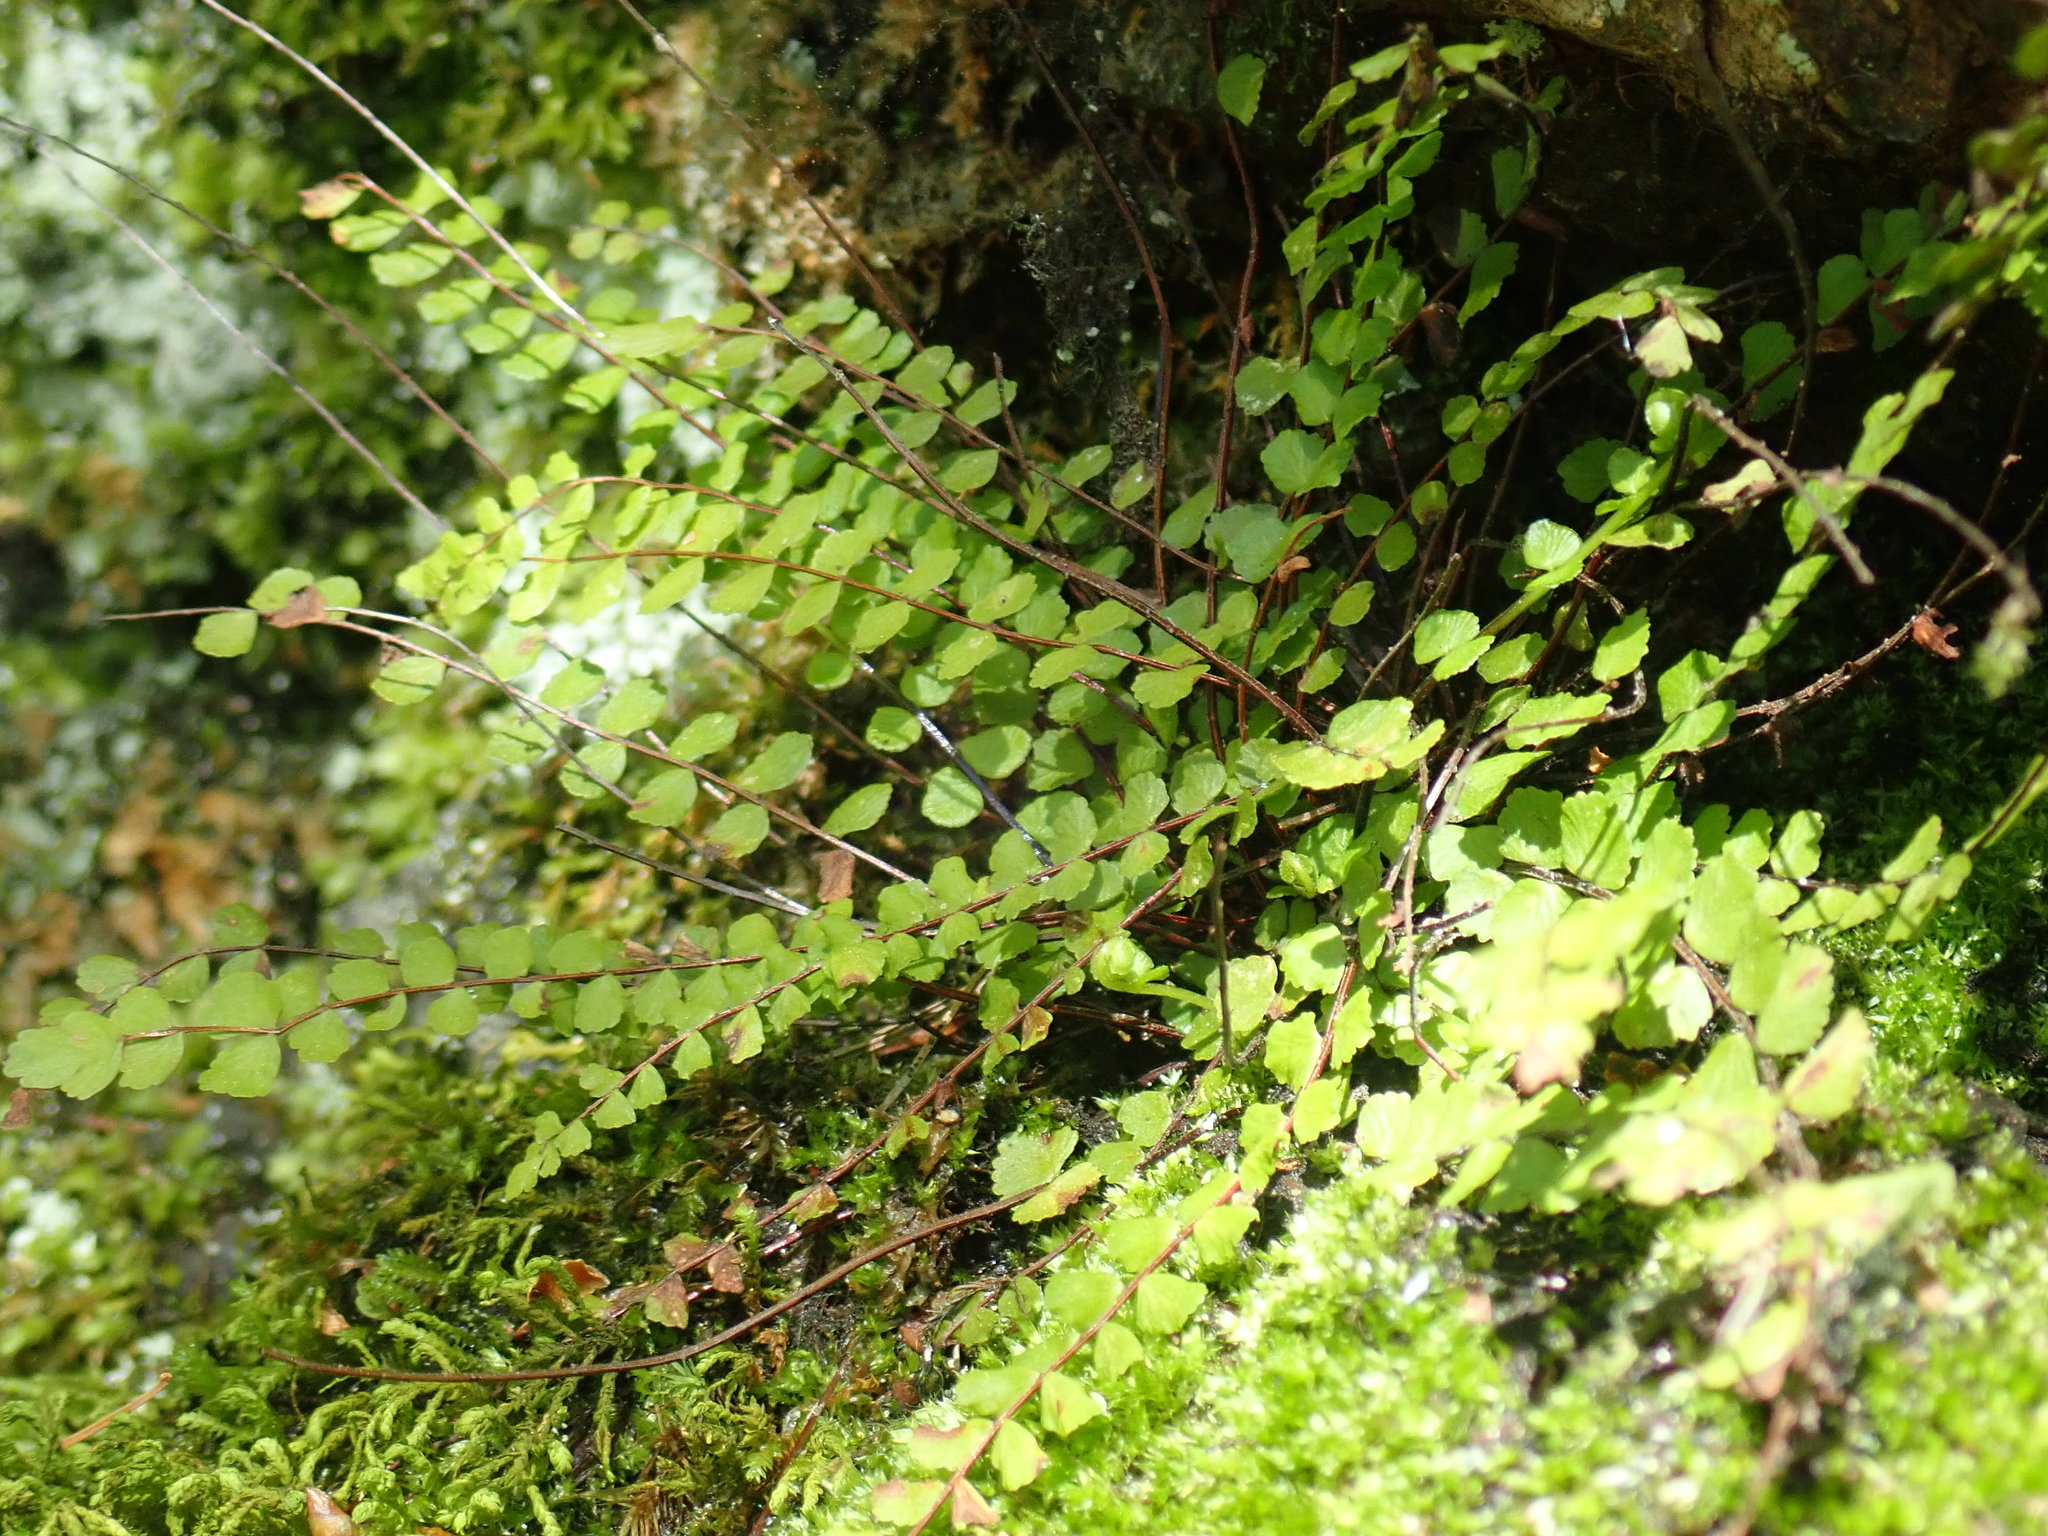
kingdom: Plantae
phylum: Tracheophyta
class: Polypodiopsida
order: Polypodiales
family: Aspleniaceae
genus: Asplenium
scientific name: Asplenium trichomanes
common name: Maidenhair spleenwort
